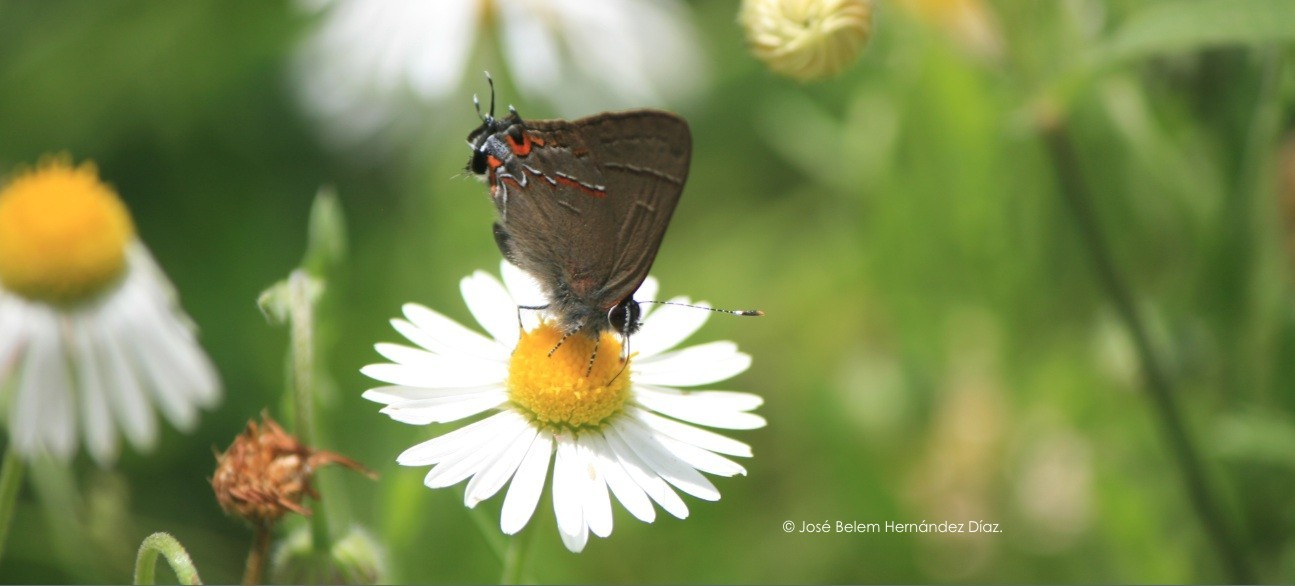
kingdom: Animalia
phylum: Arthropoda
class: Insecta
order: Lepidoptera
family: Lycaenidae
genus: Electrostrymon
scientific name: Electrostrymon
